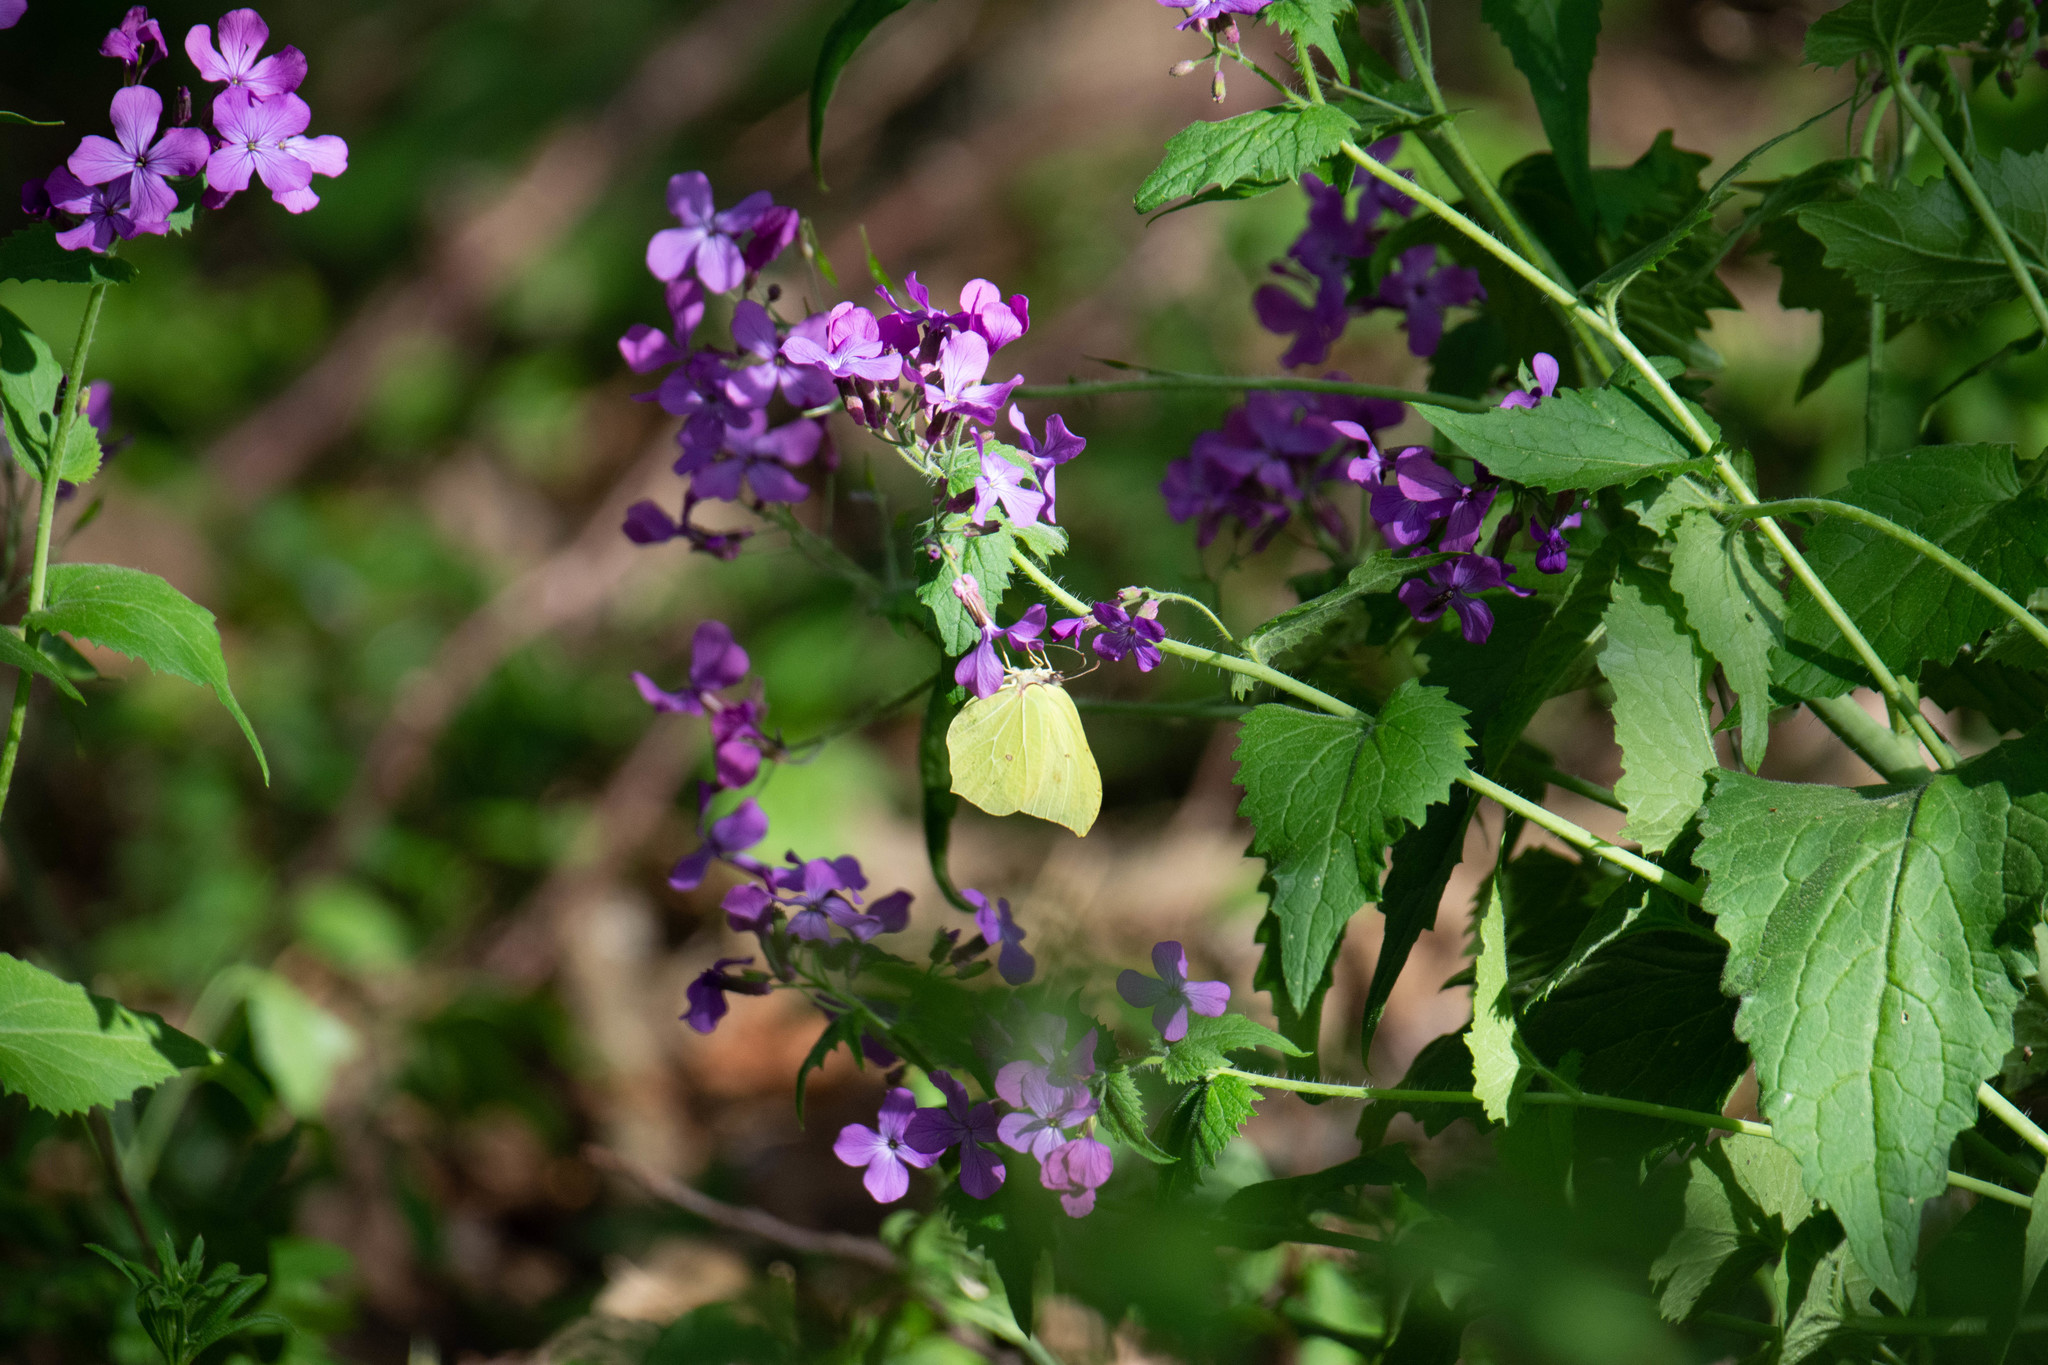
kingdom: Animalia
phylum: Arthropoda
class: Insecta
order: Lepidoptera
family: Pieridae
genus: Gonepteryx
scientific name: Gonepteryx rhamni
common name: Brimstone
